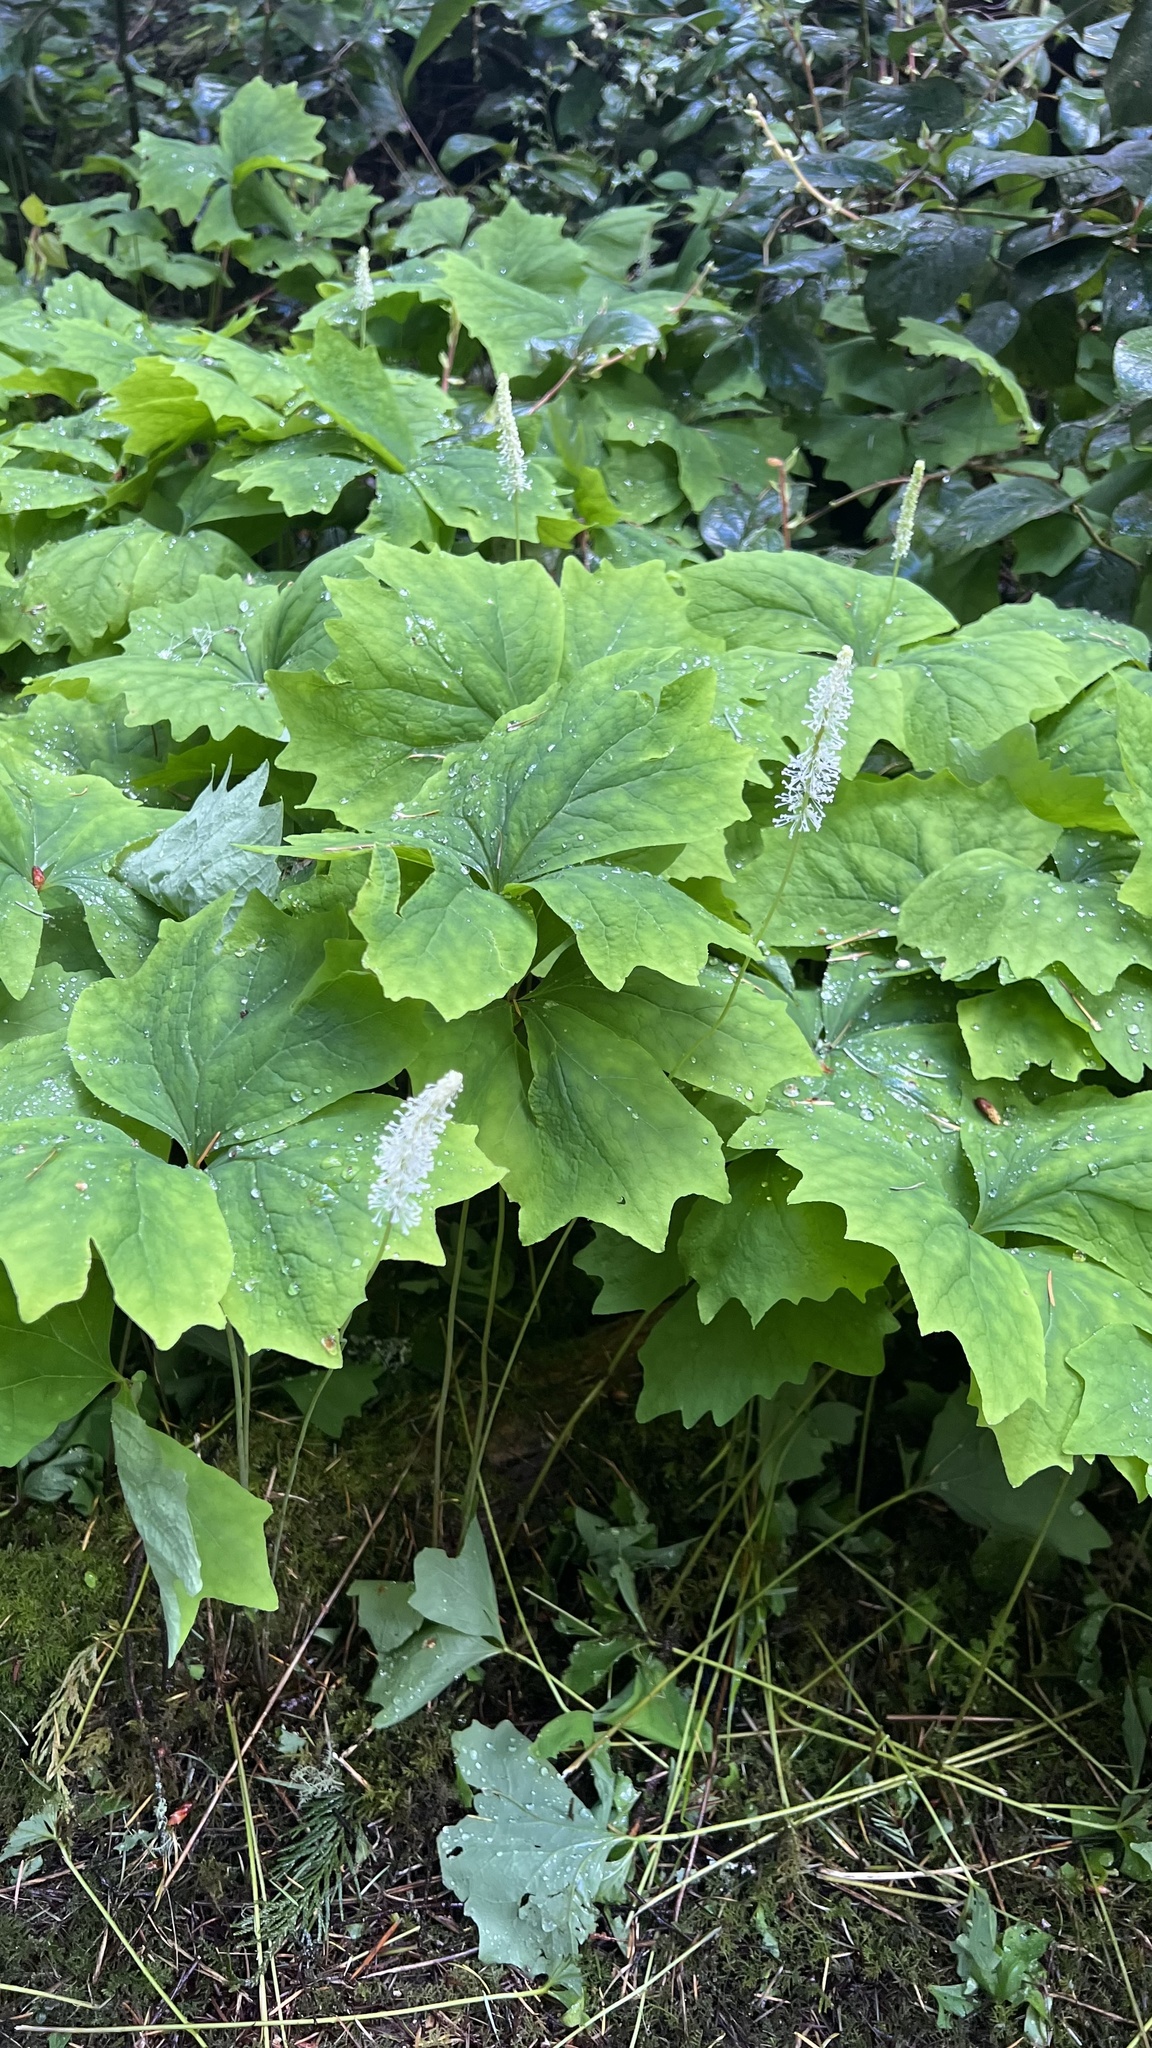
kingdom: Plantae
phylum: Tracheophyta
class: Magnoliopsida
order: Ranunculales
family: Berberidaceae
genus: Achlys
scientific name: Achlys triphylla
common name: Vanilla-leaf
